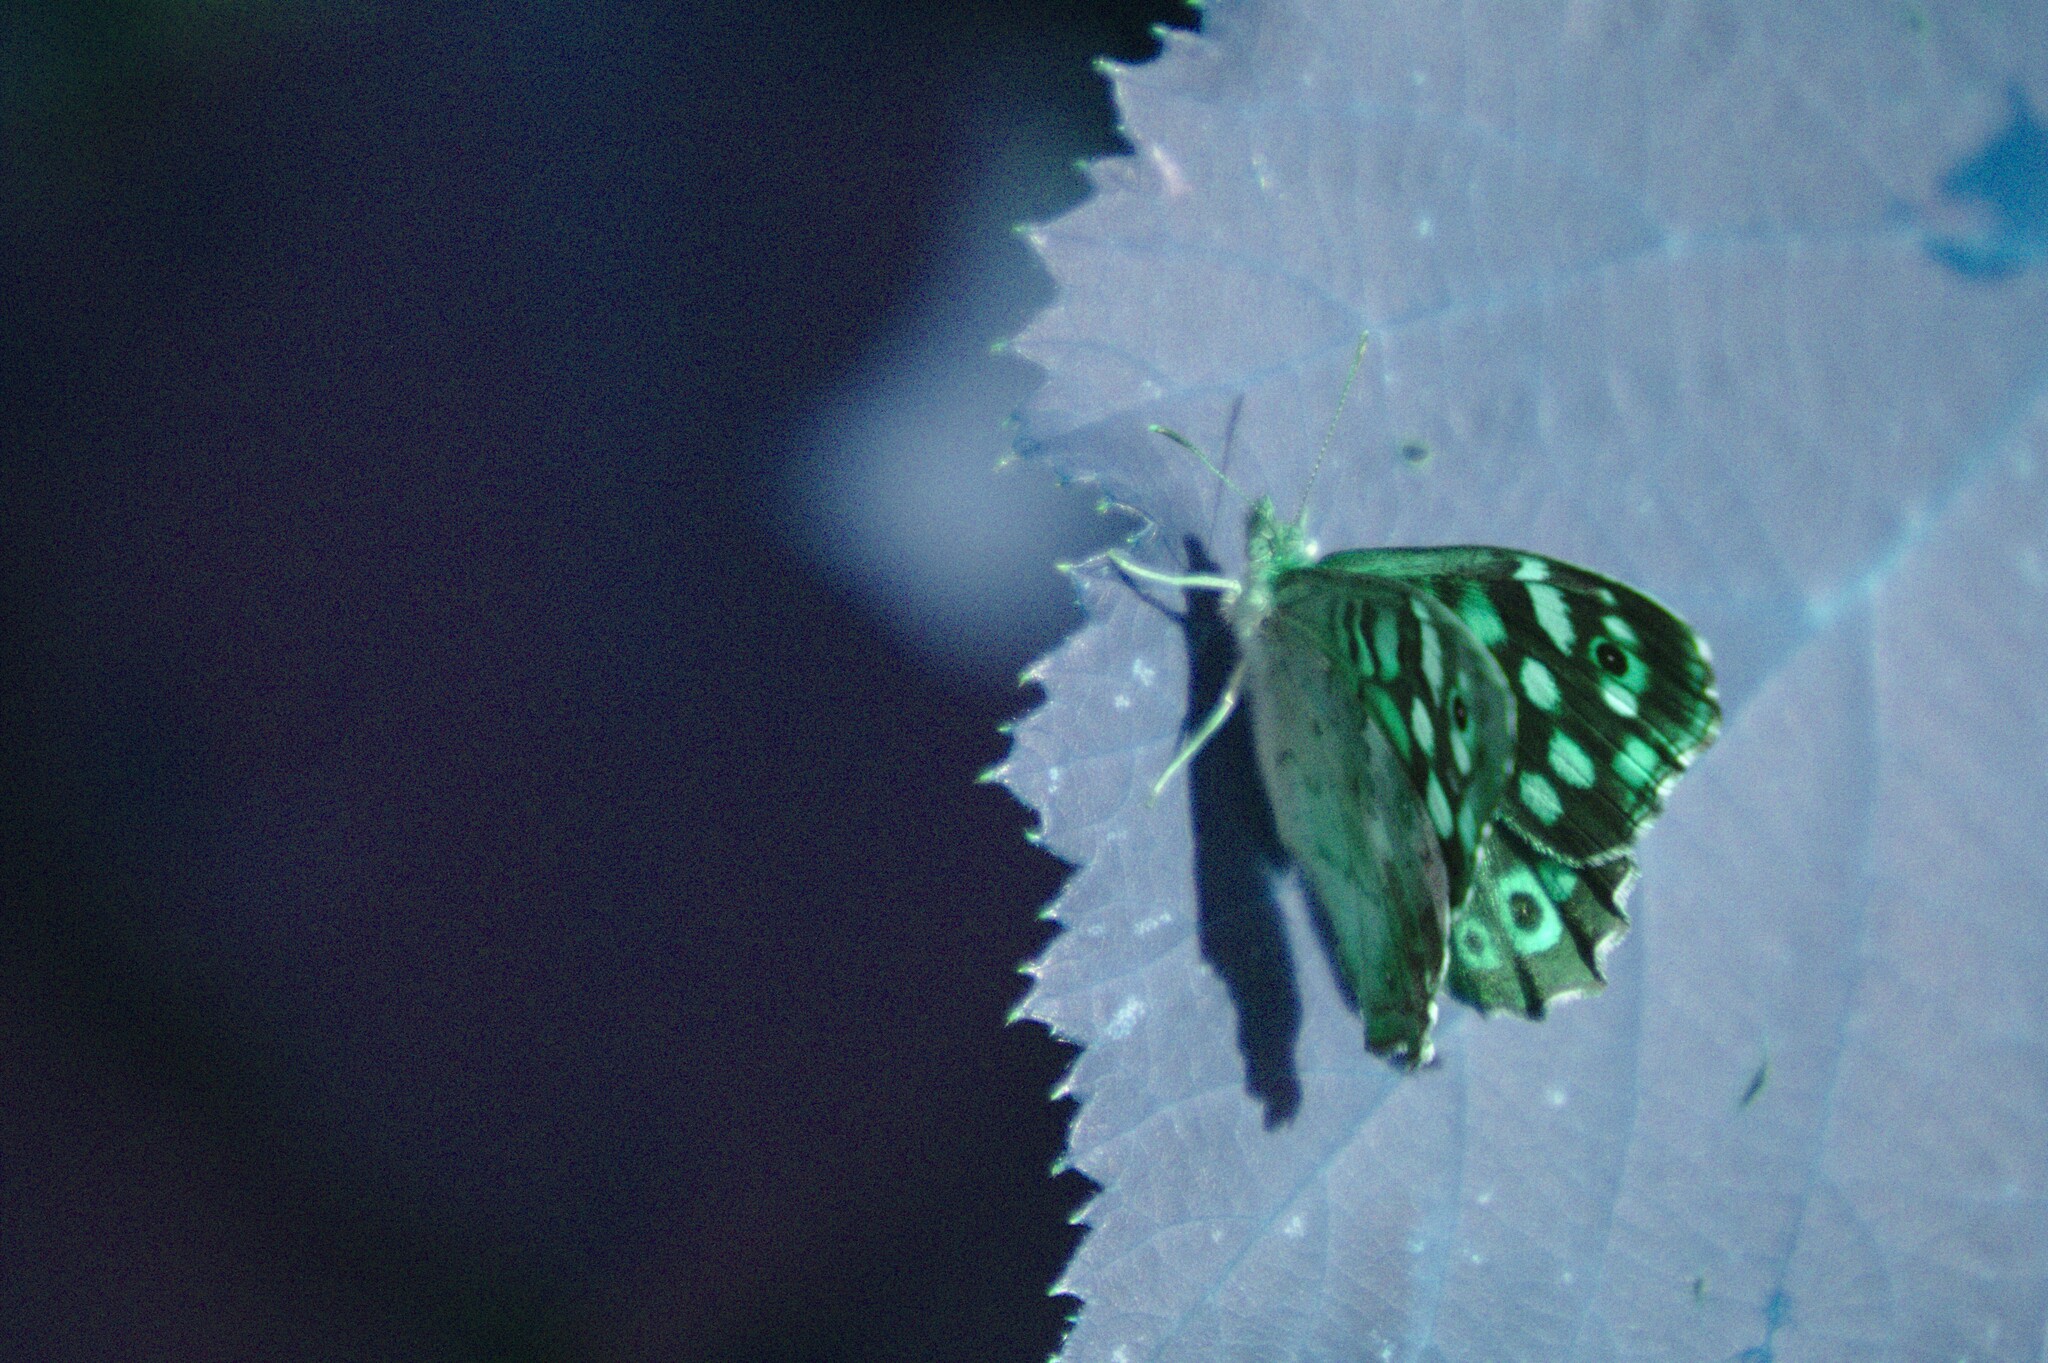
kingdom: Animalia
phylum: Arthropoda
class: Insecta
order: Lepidoptera
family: Nymphalidae
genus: Pararge
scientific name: Pararge aegeria
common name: Speckled wood
